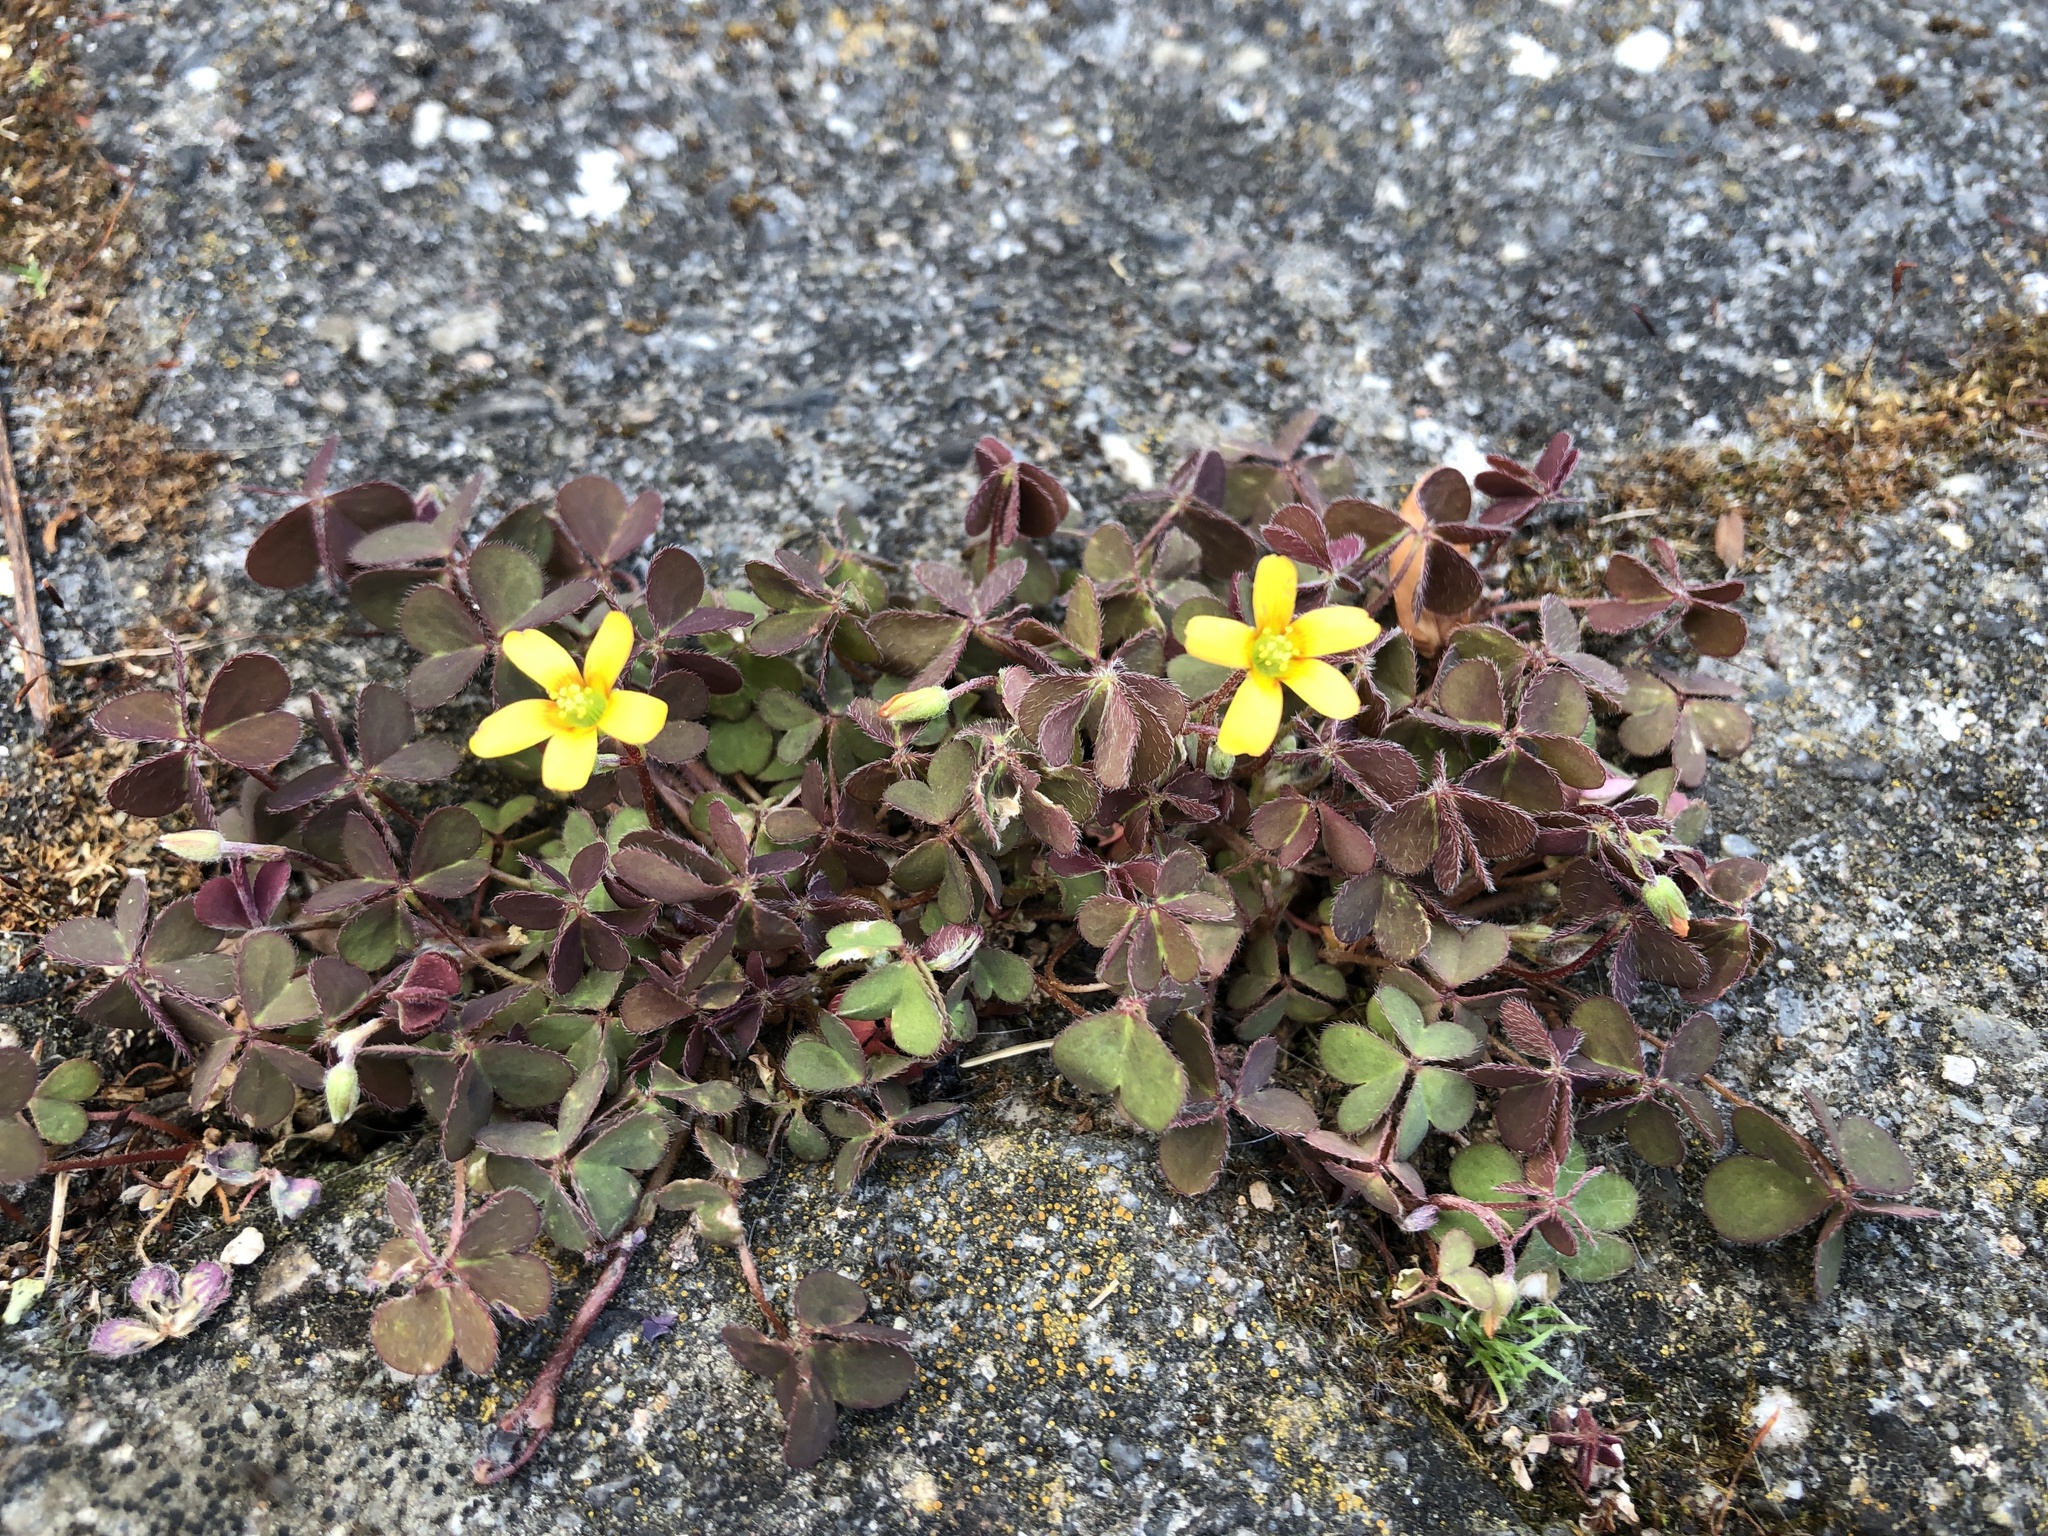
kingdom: Plantae
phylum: Tracheophyta
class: Magnoliopsida
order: Oxalidales
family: Oxalidaceae
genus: Oxalis
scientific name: Oxalis corniculata
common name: Procumbent yellow-sorrel
